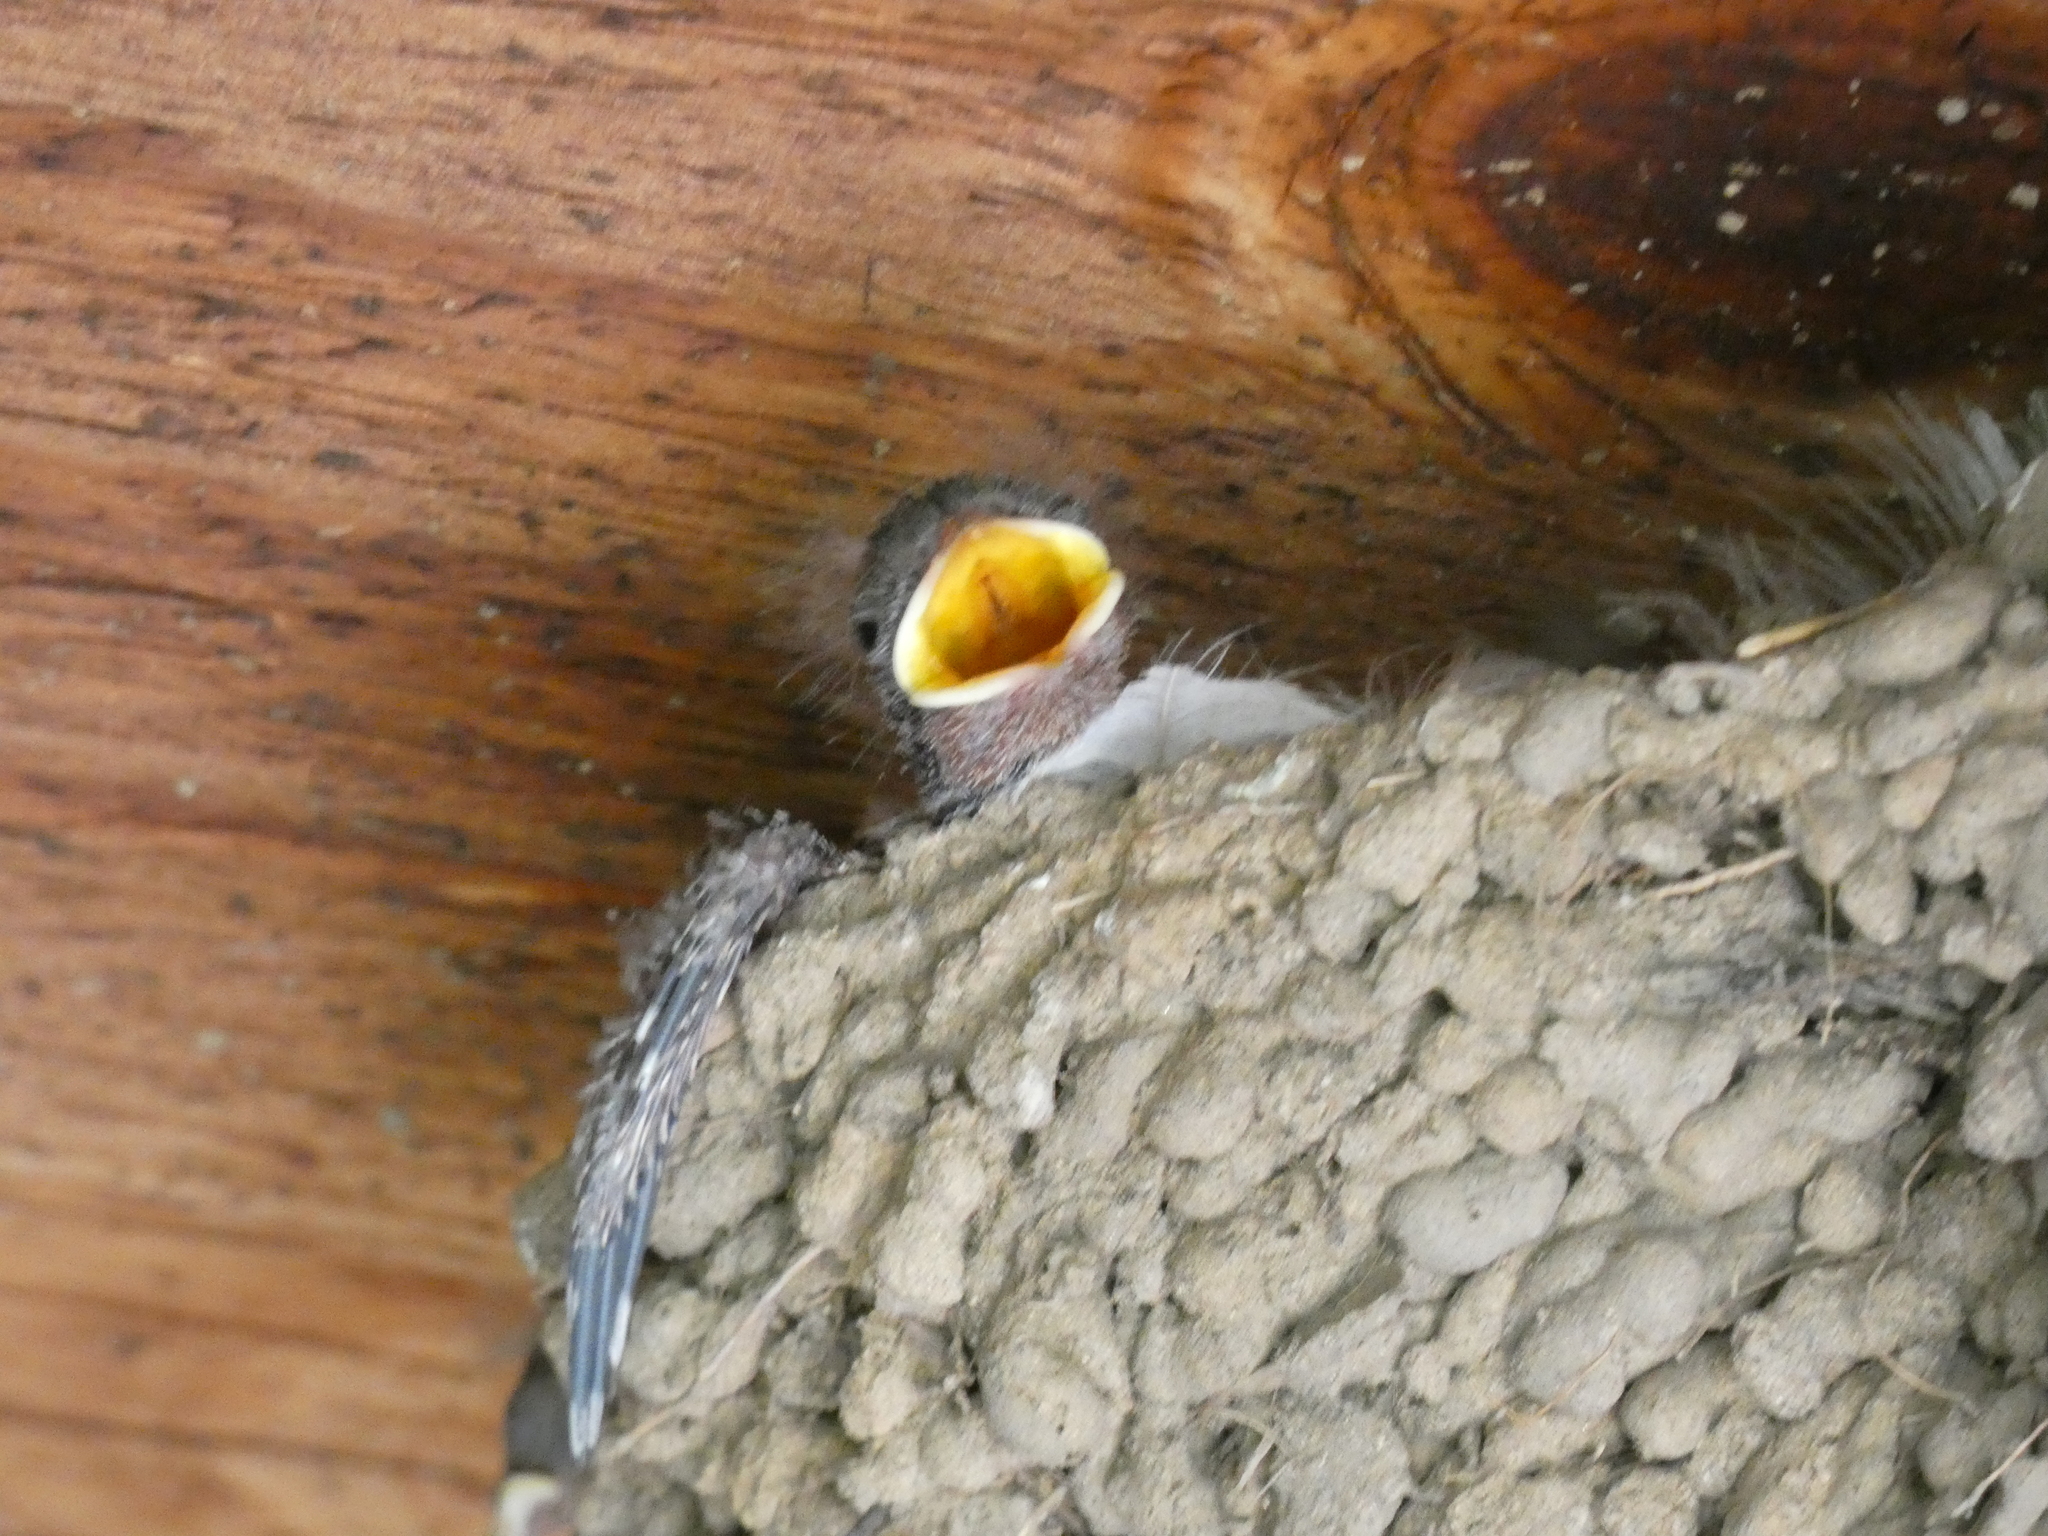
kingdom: Animalia
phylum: Chordata
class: Aves
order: Passeriformes
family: Hirundinidae
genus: Hirundo
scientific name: Hirundo rustica
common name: Barn swallow
